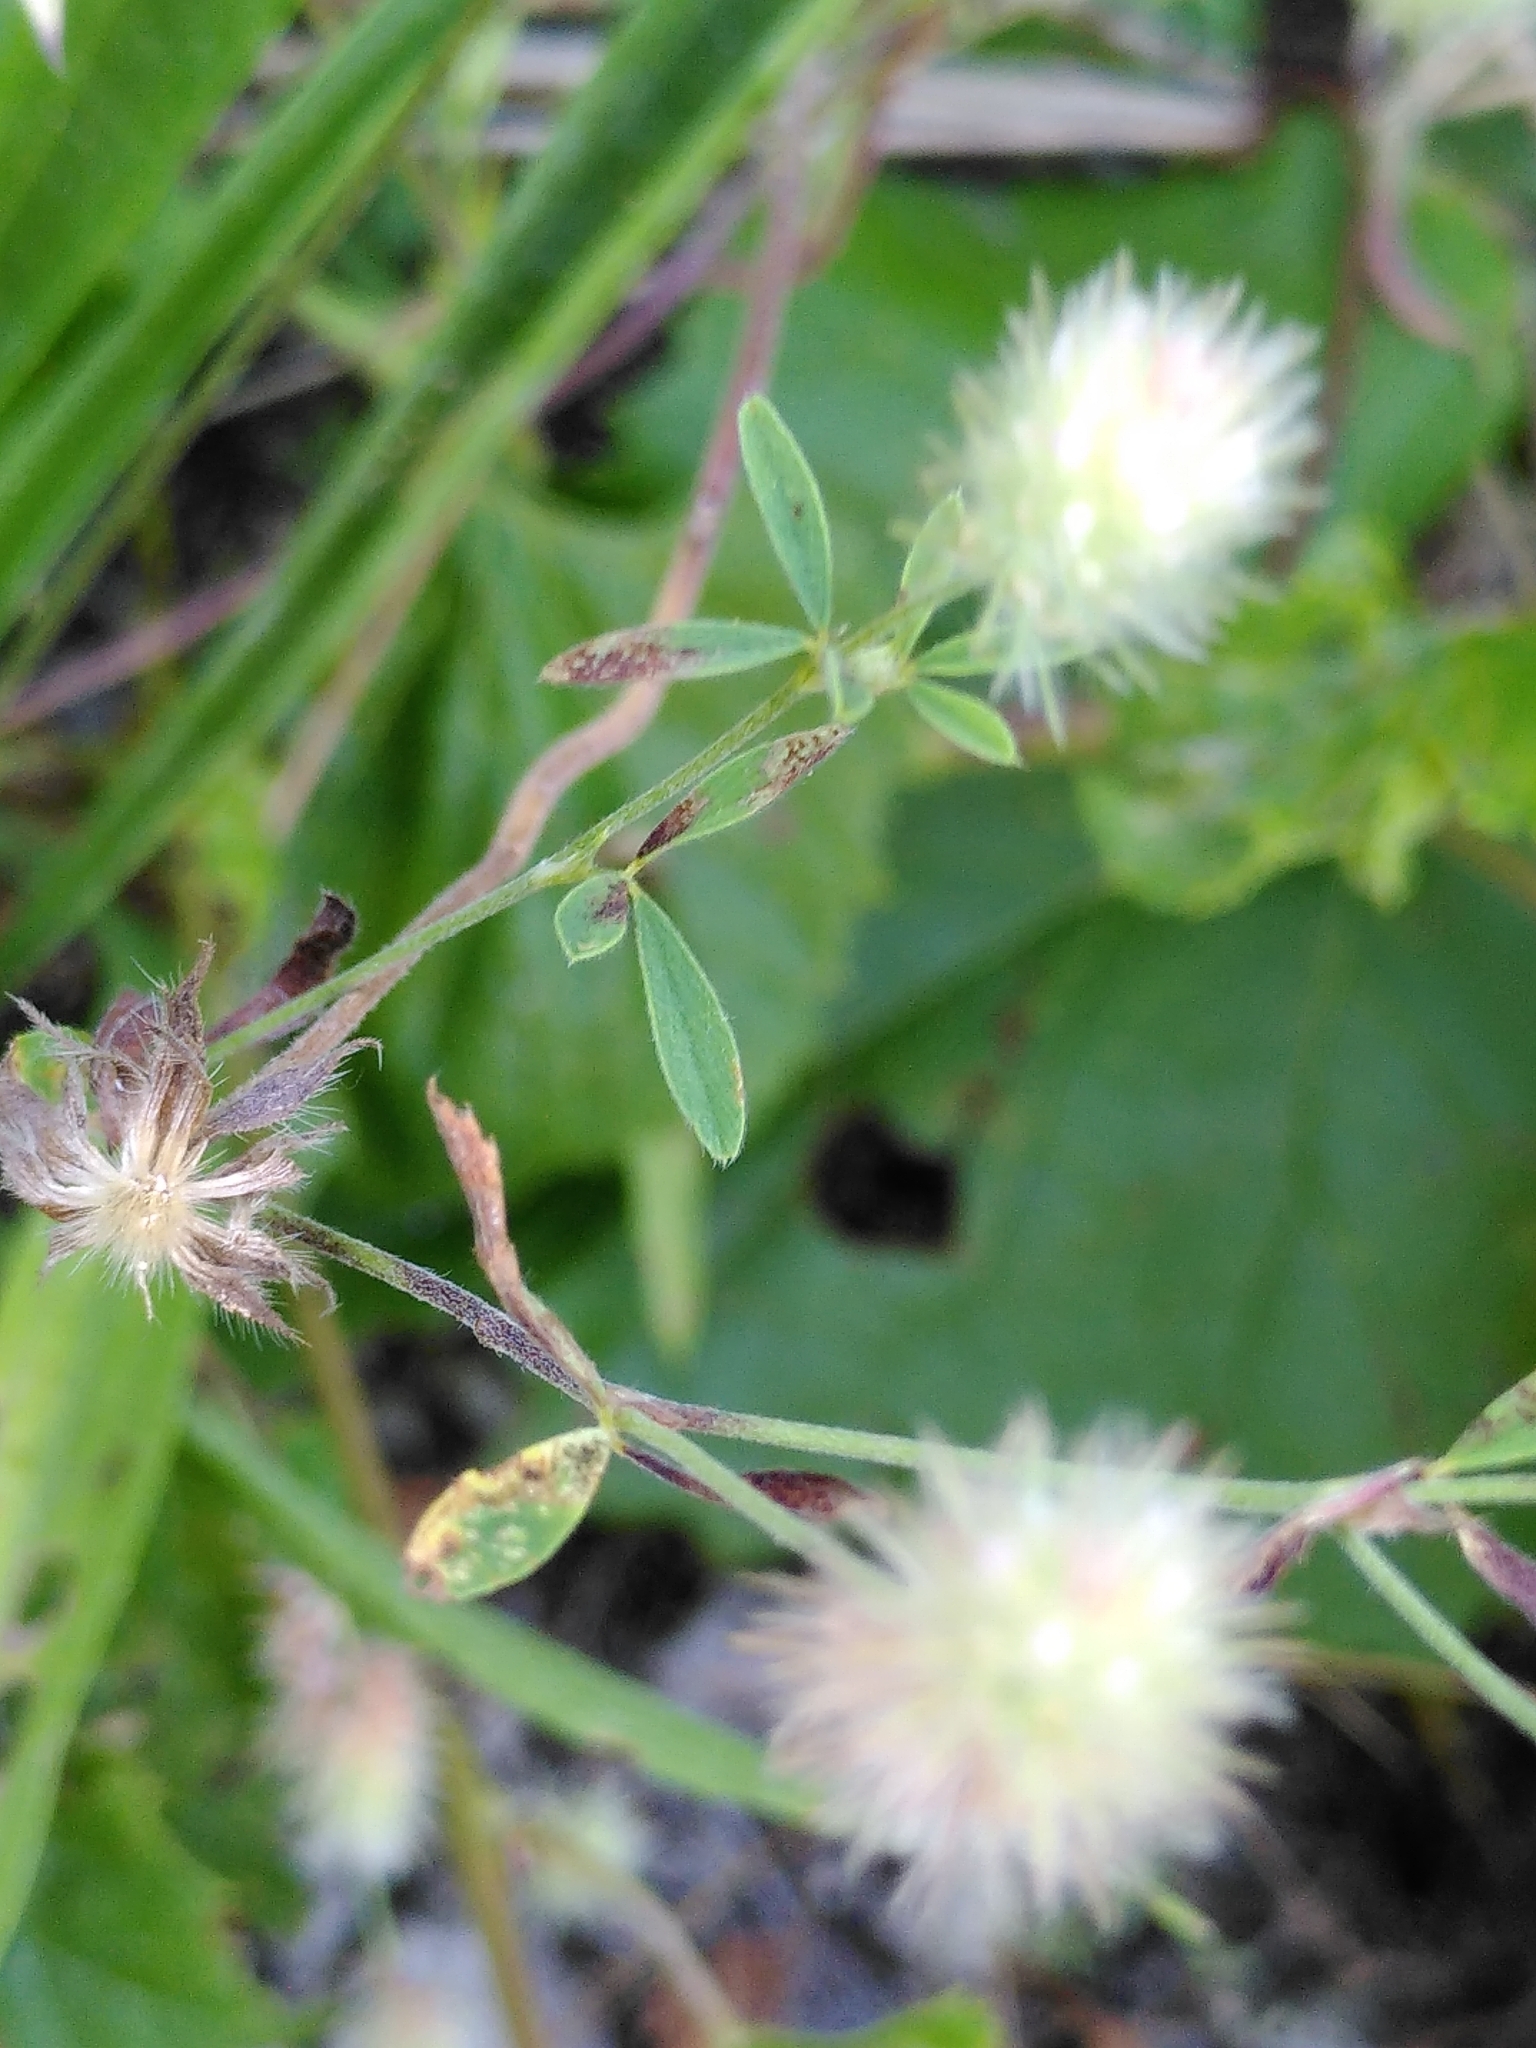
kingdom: Plantae
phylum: Tracheophyta
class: Magnoliopsida
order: Fabales
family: Fabaceae
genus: Trifolium
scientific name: Trifolium arvense
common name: Hare's-foot clover
